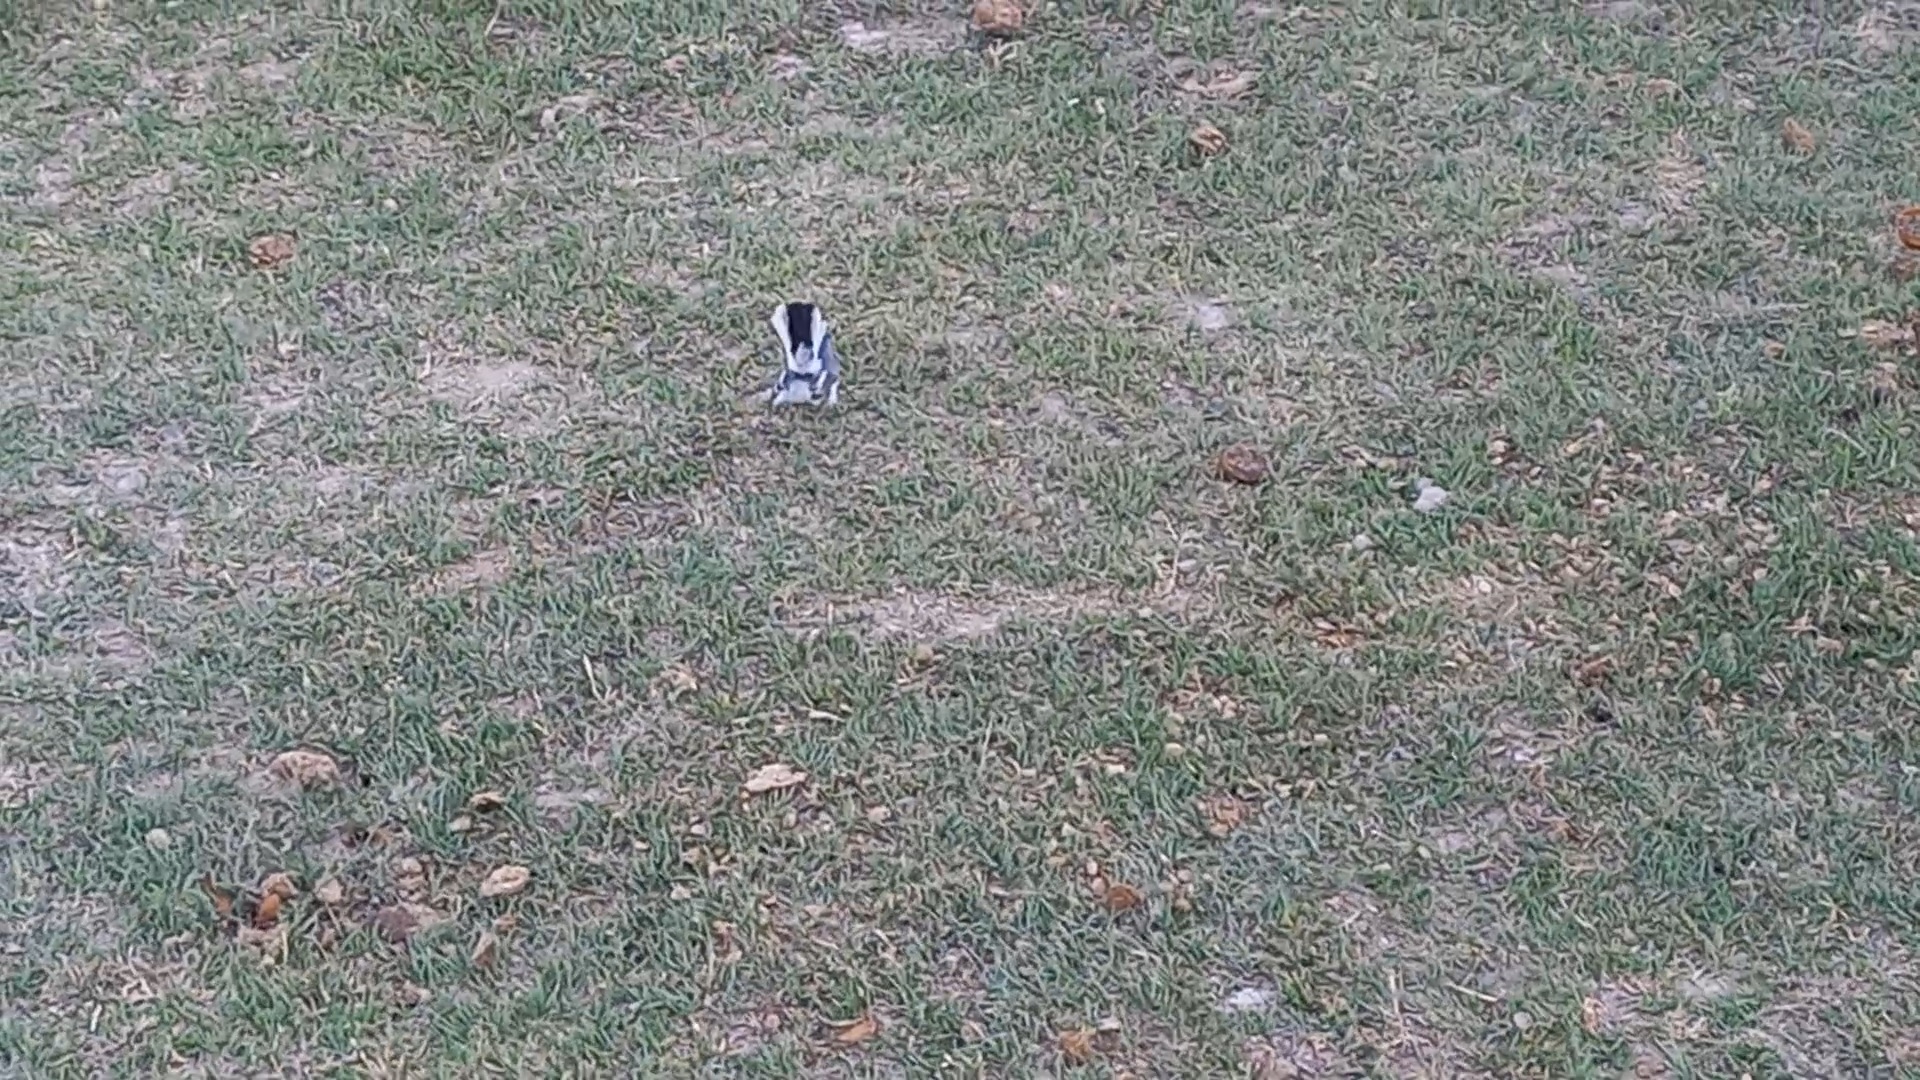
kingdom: Animalia
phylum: Chordata
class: Aves
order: Passeriformes
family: Polioptilidae
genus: Polioptila
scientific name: Polioptila caerulea
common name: Blue-gray gnatcatcher
